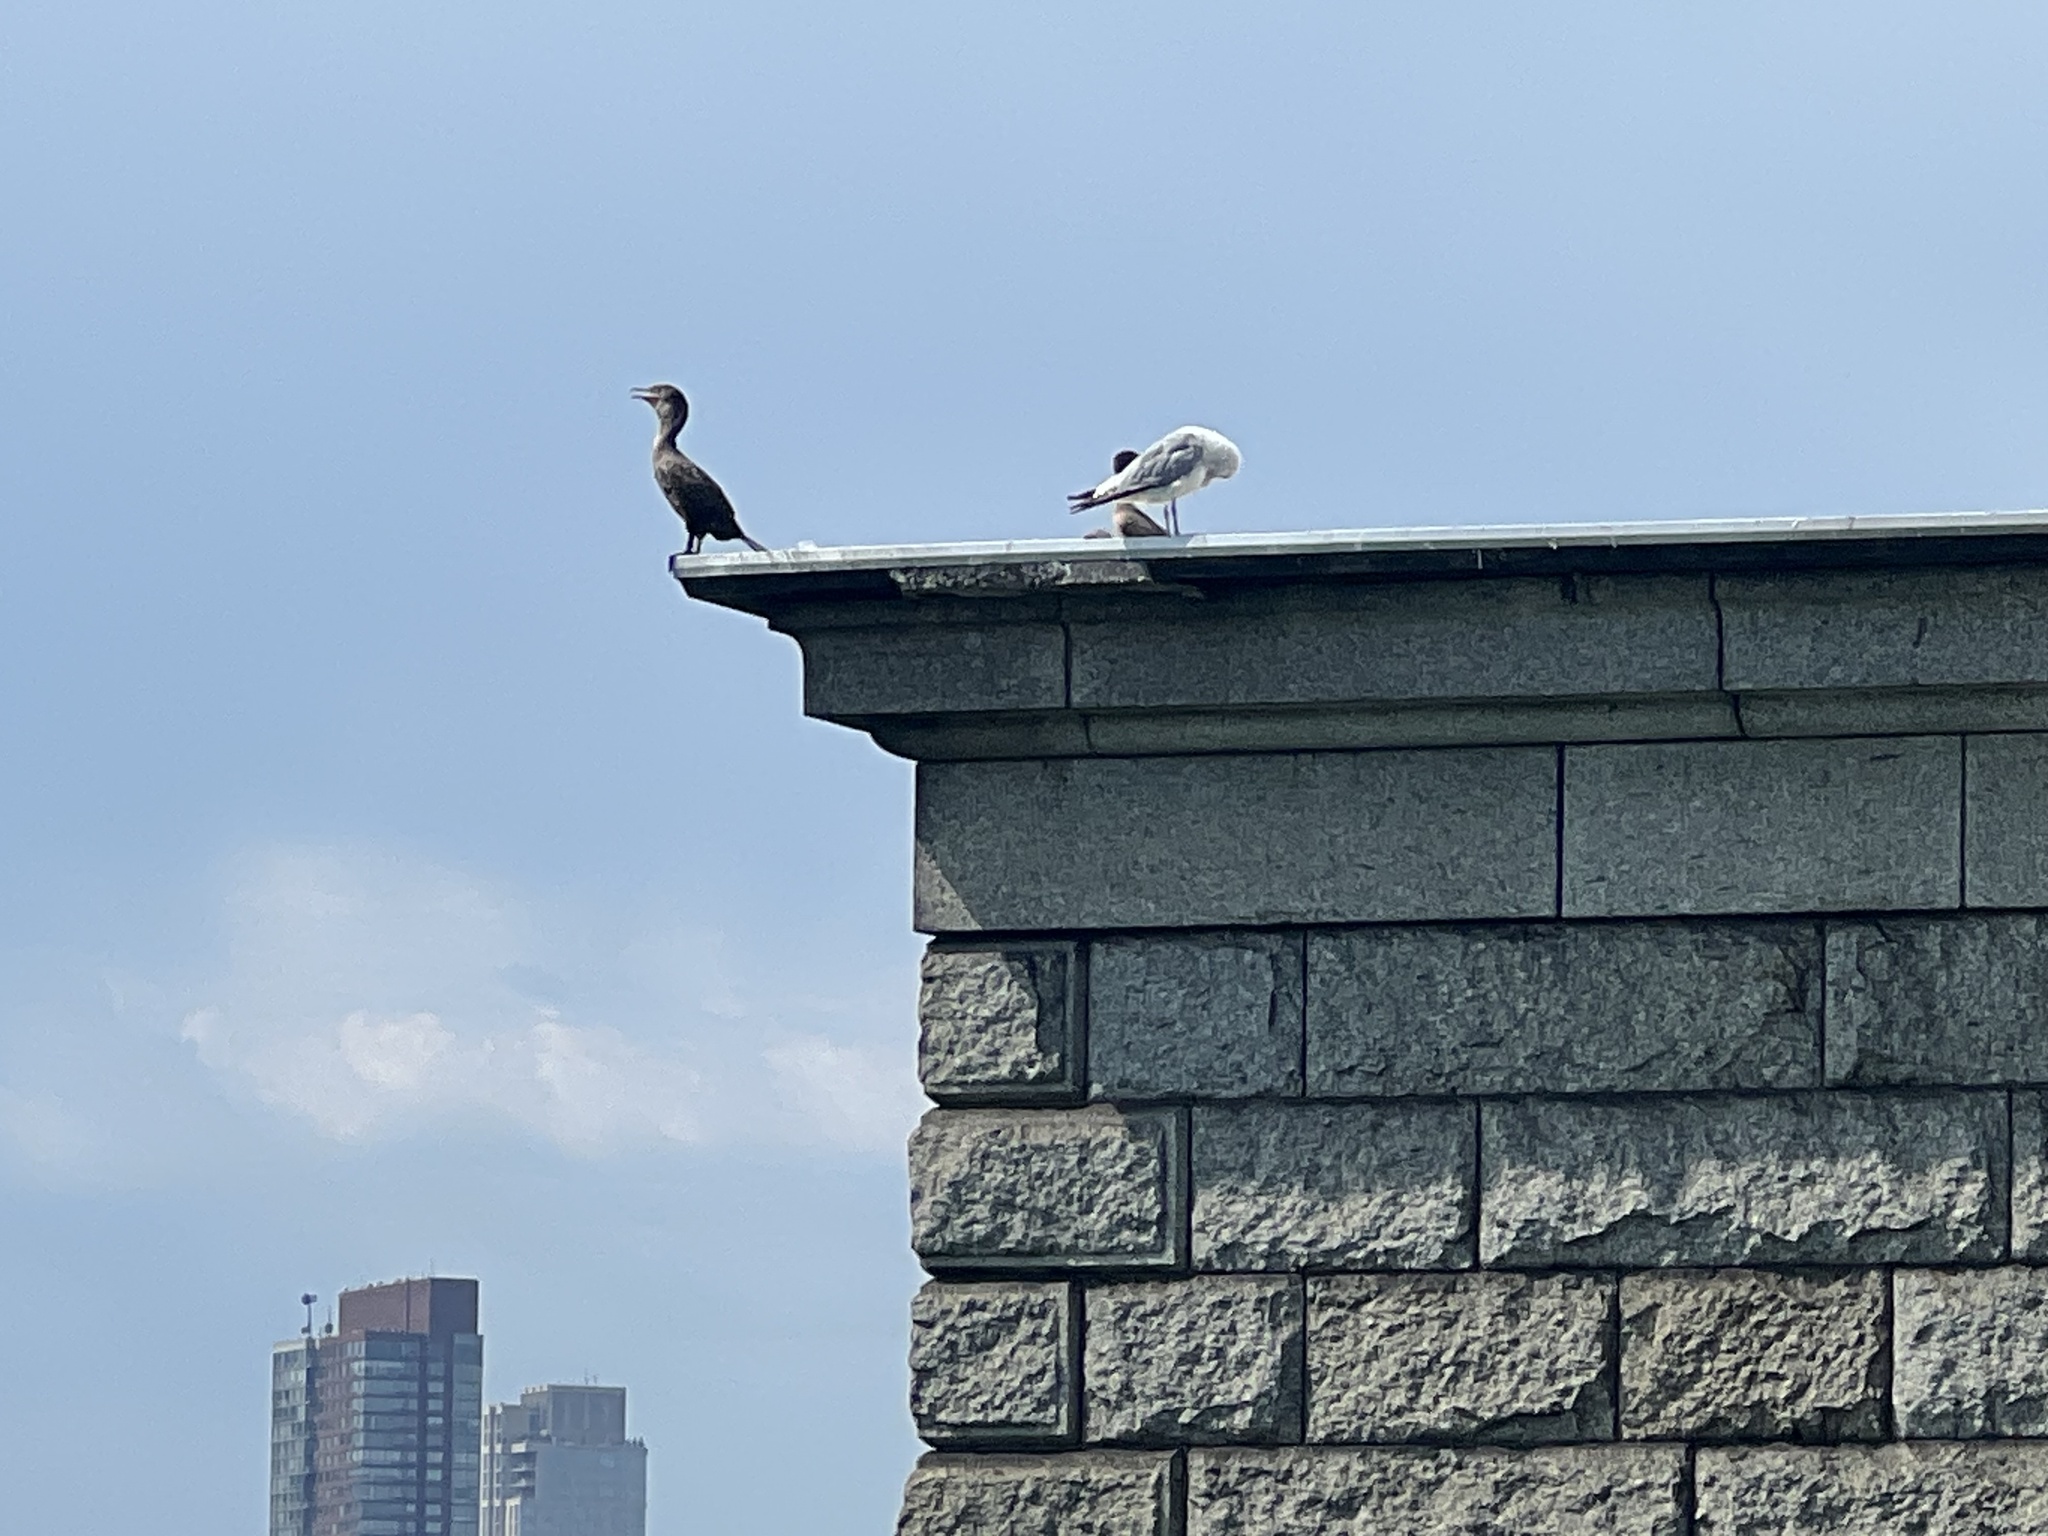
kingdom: Animalia
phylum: Chordata
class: Aves
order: Suliformes
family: Phalacrocoracidae
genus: Phalacrocorax
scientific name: Phalacrocorax auritus
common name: Double-crested cormorant
